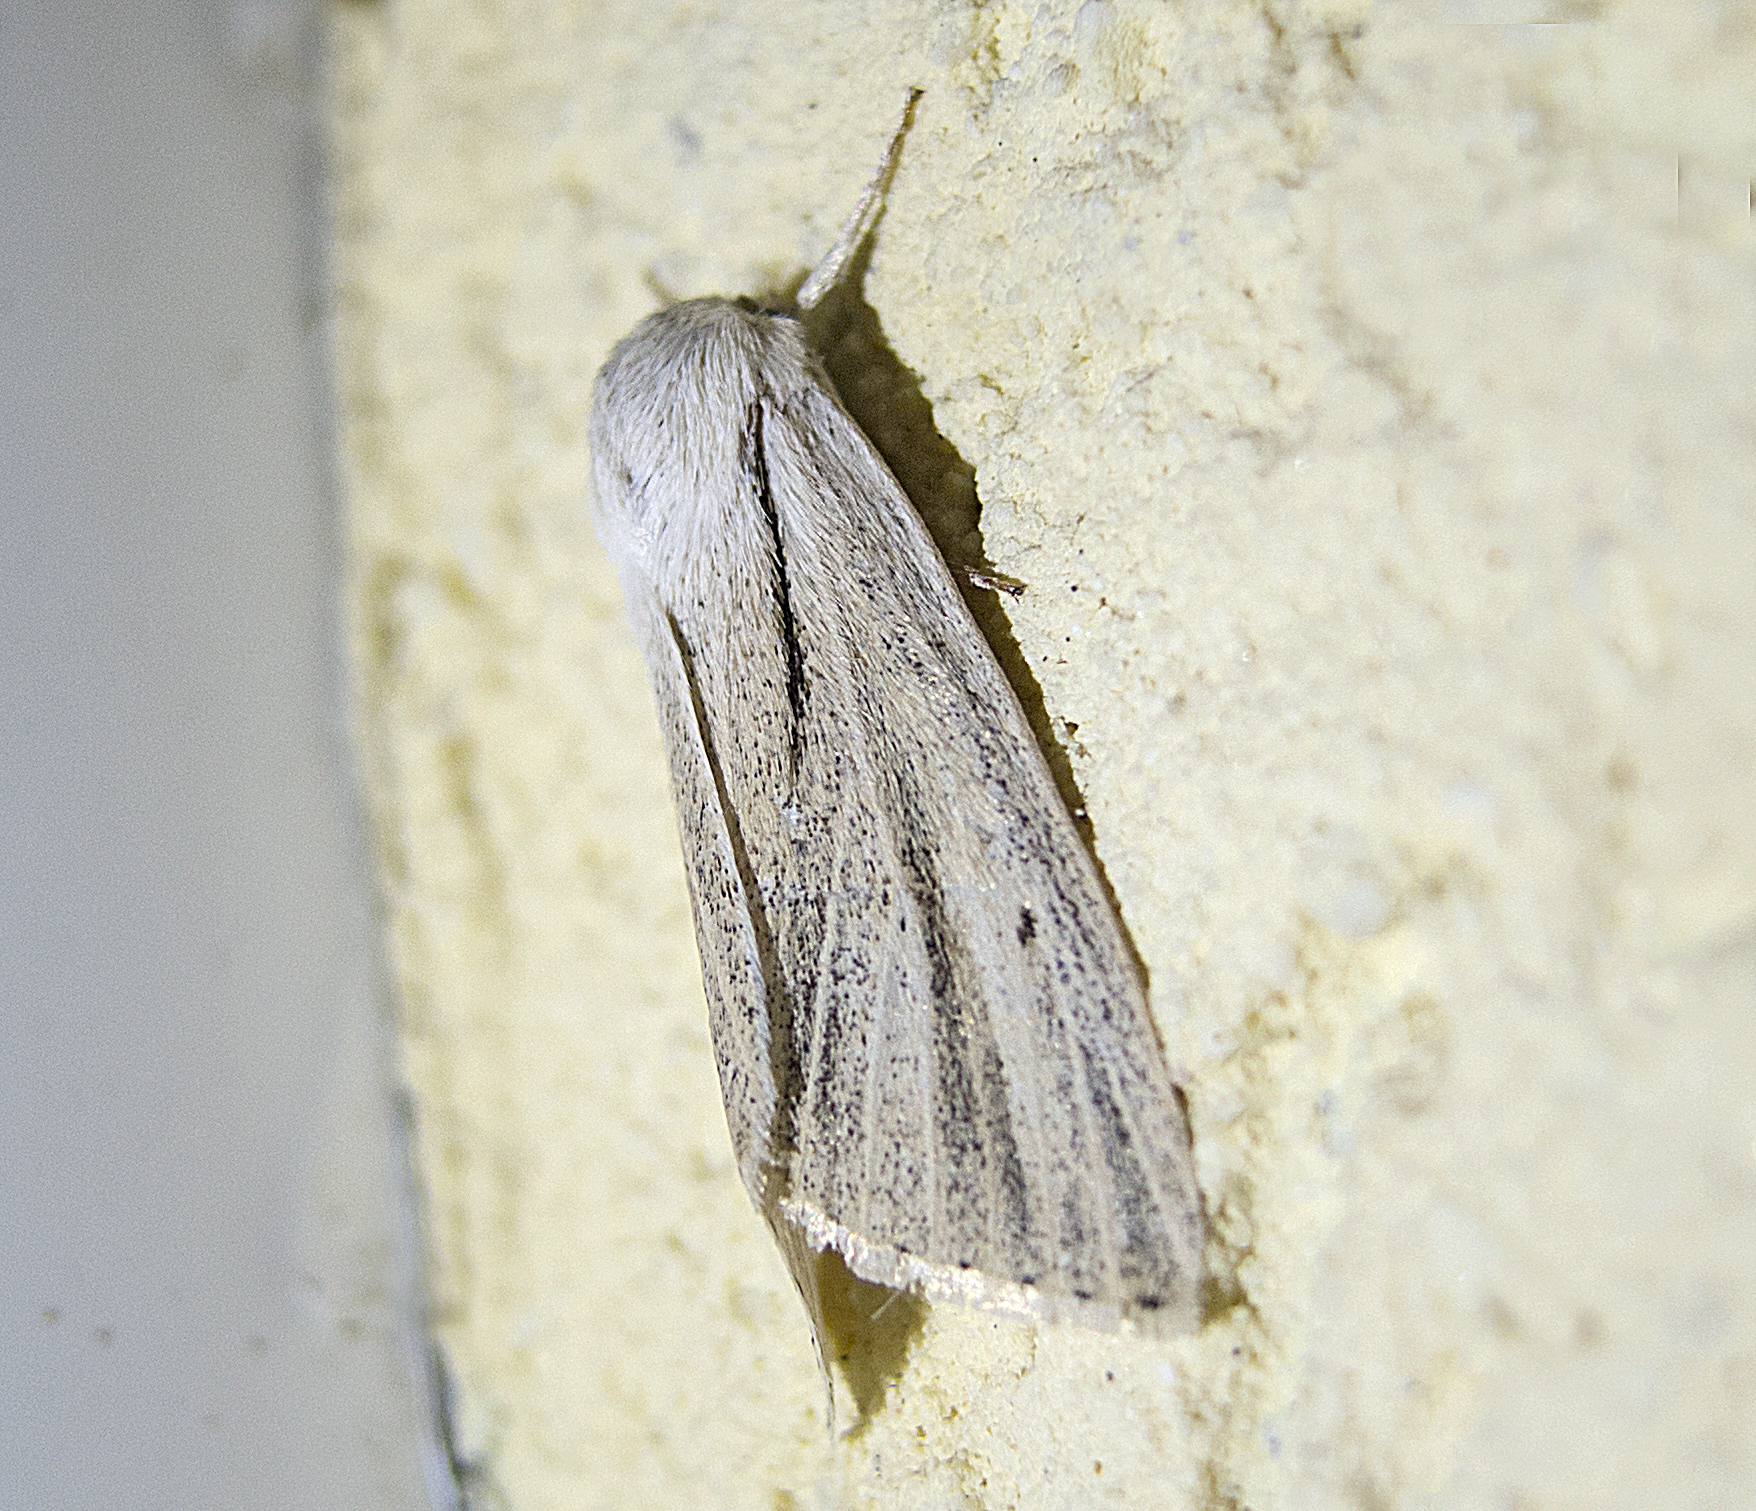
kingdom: Animalia
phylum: Arthropoda
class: Insecta
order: Lepidoptera
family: Noctuidae
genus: Simyra
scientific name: Simyra albovenosa
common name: Reed dagger
